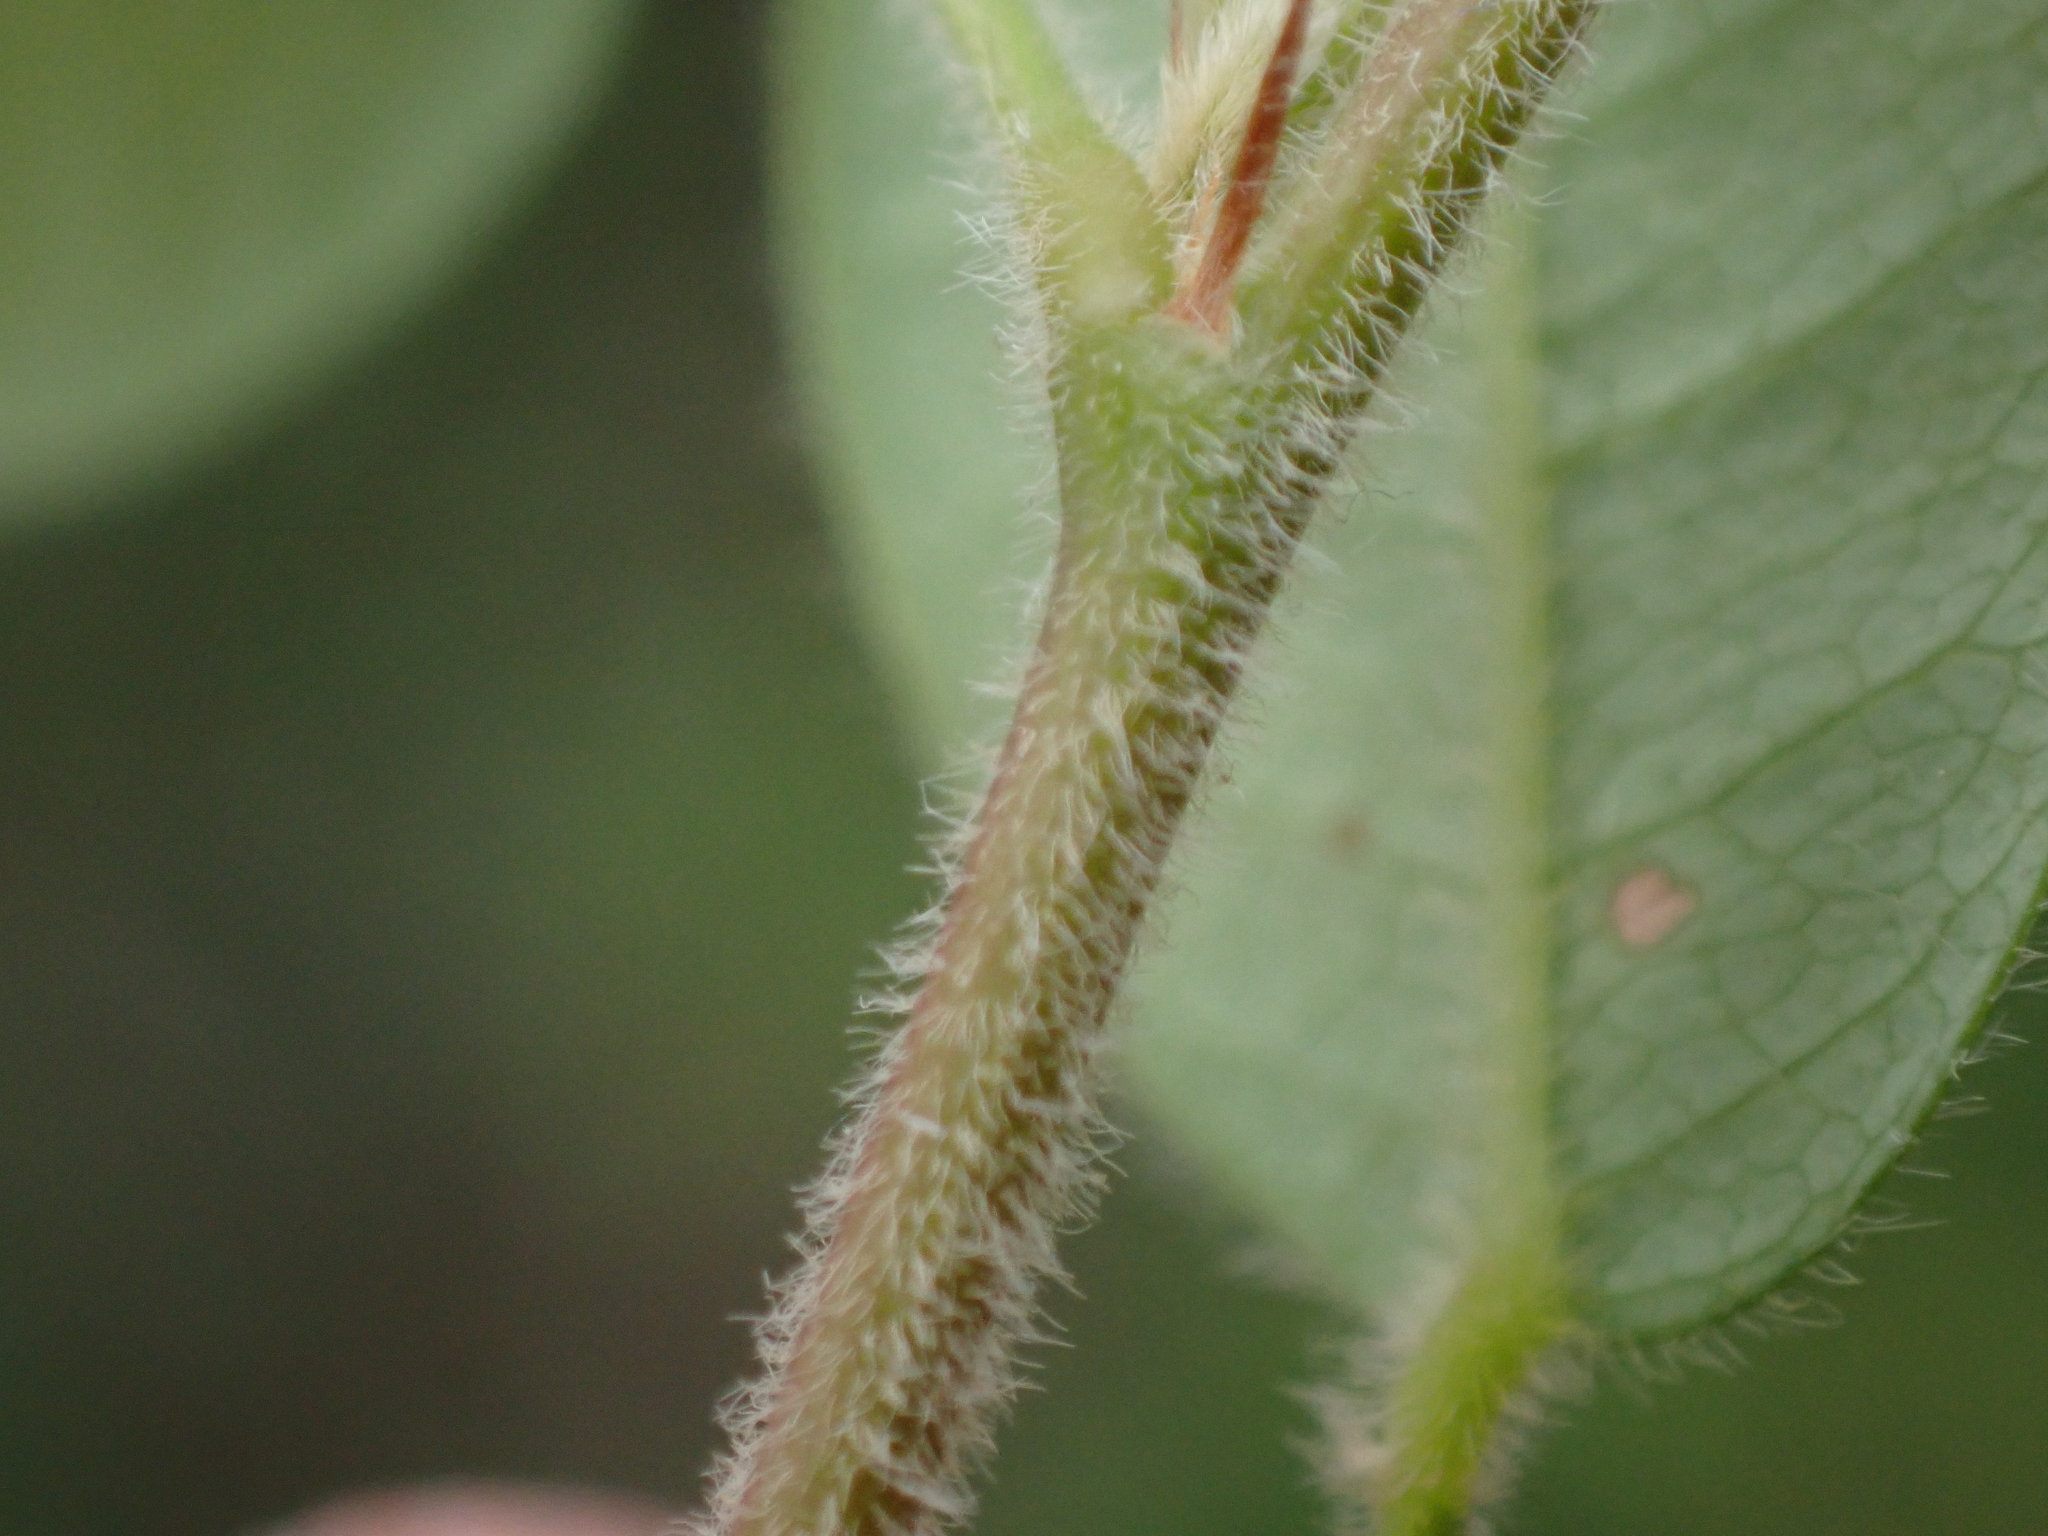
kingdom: Plantae
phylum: Tracheophyta
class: Magnoliopsida
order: Fabales
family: Fabaceae
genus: Lespedeza
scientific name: Lespedeza procumbens
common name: Downy trailing bush-clover
